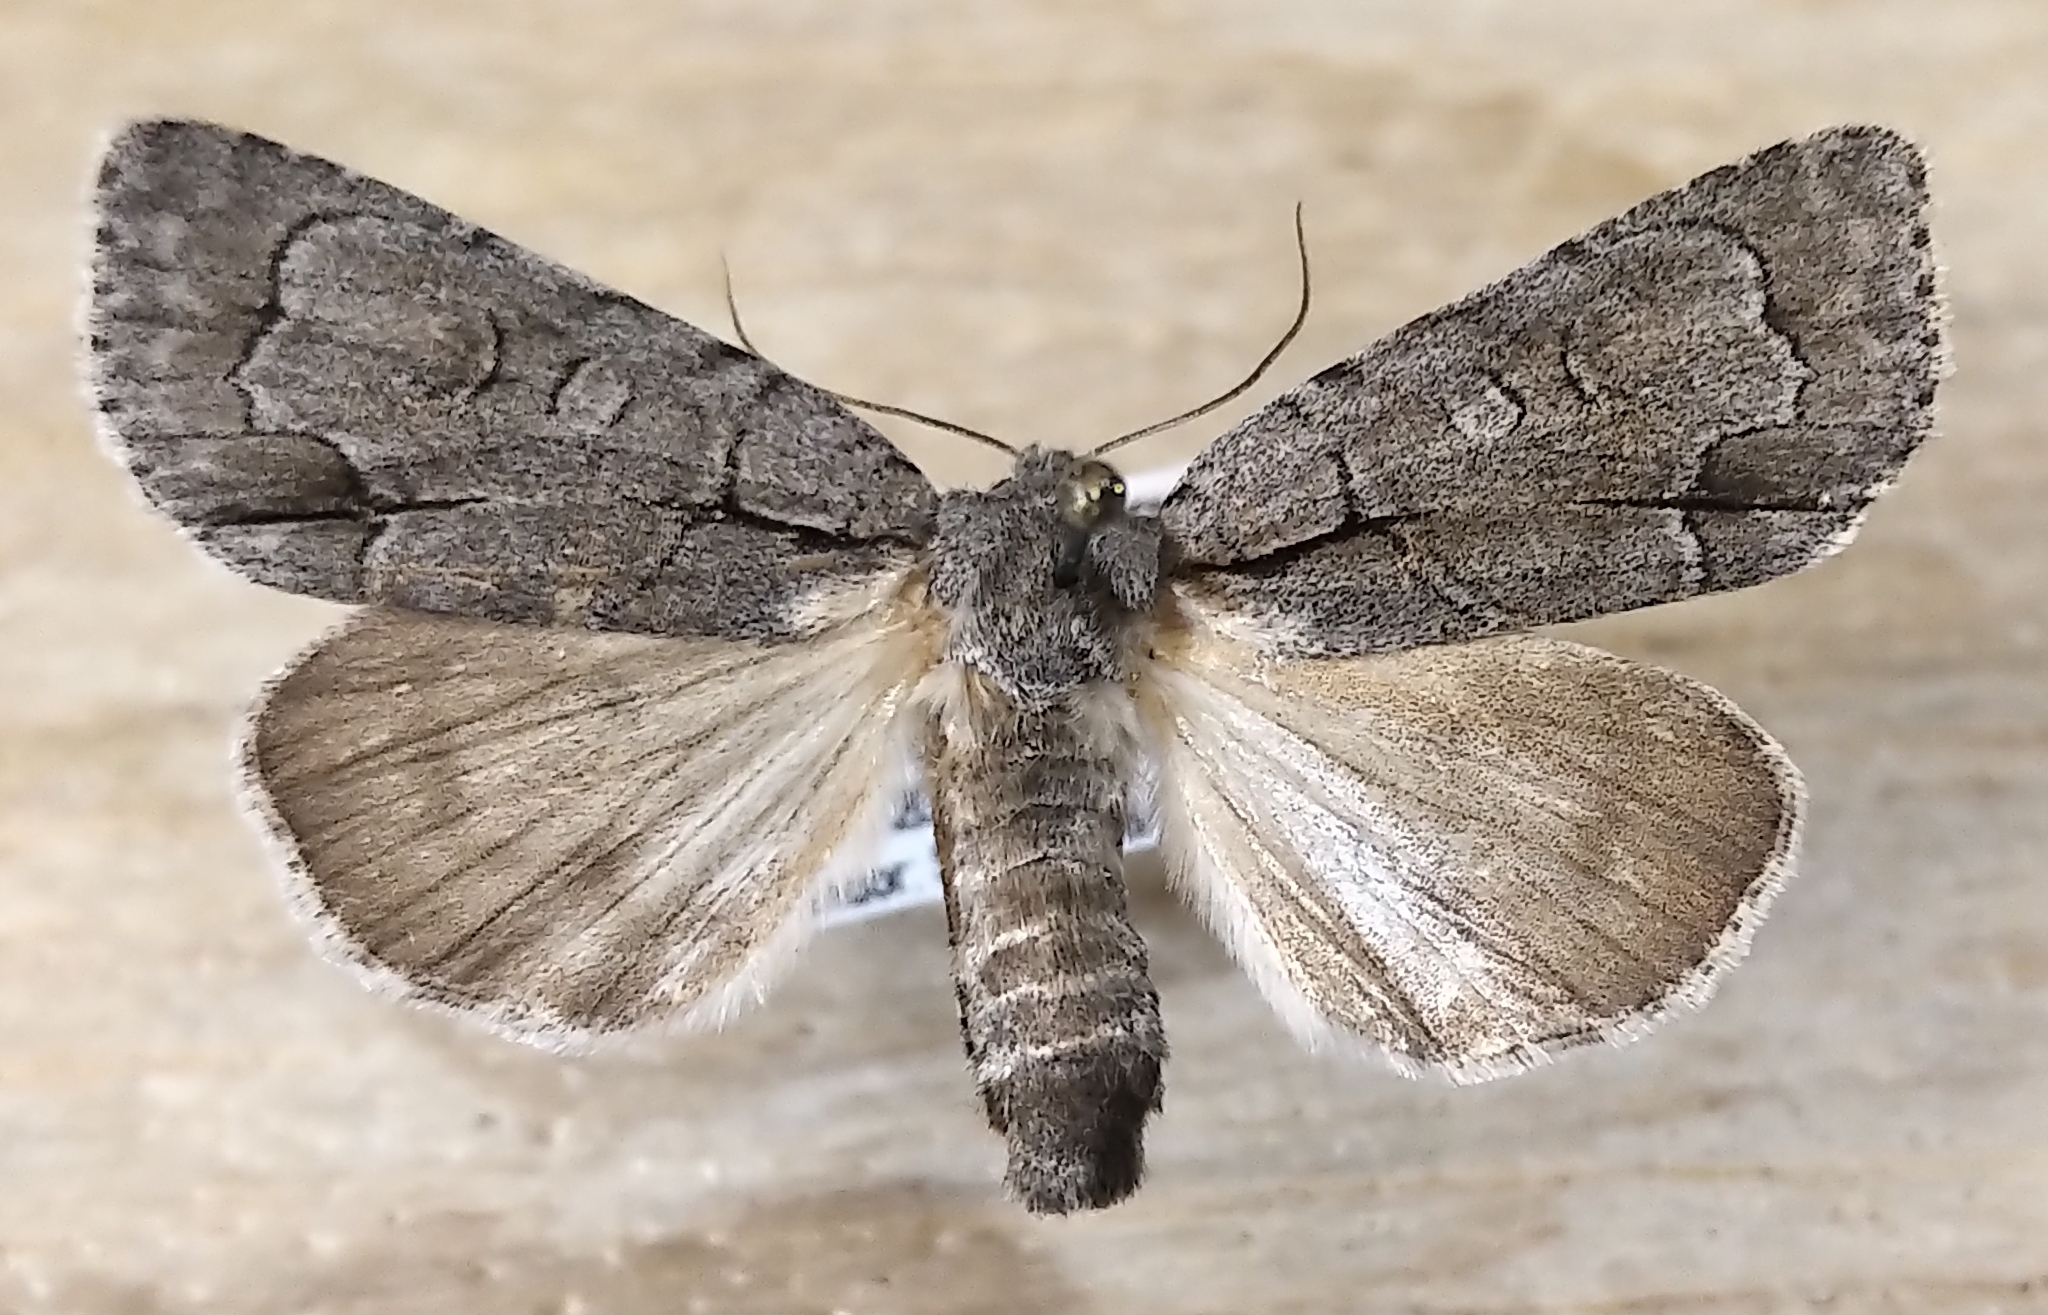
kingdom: Animalia
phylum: Arthropoda
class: Insecta
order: Lepidoptera
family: Noctuidae
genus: Acronicta
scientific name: Acronicta radcliffei
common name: Radcliffe's dagger
